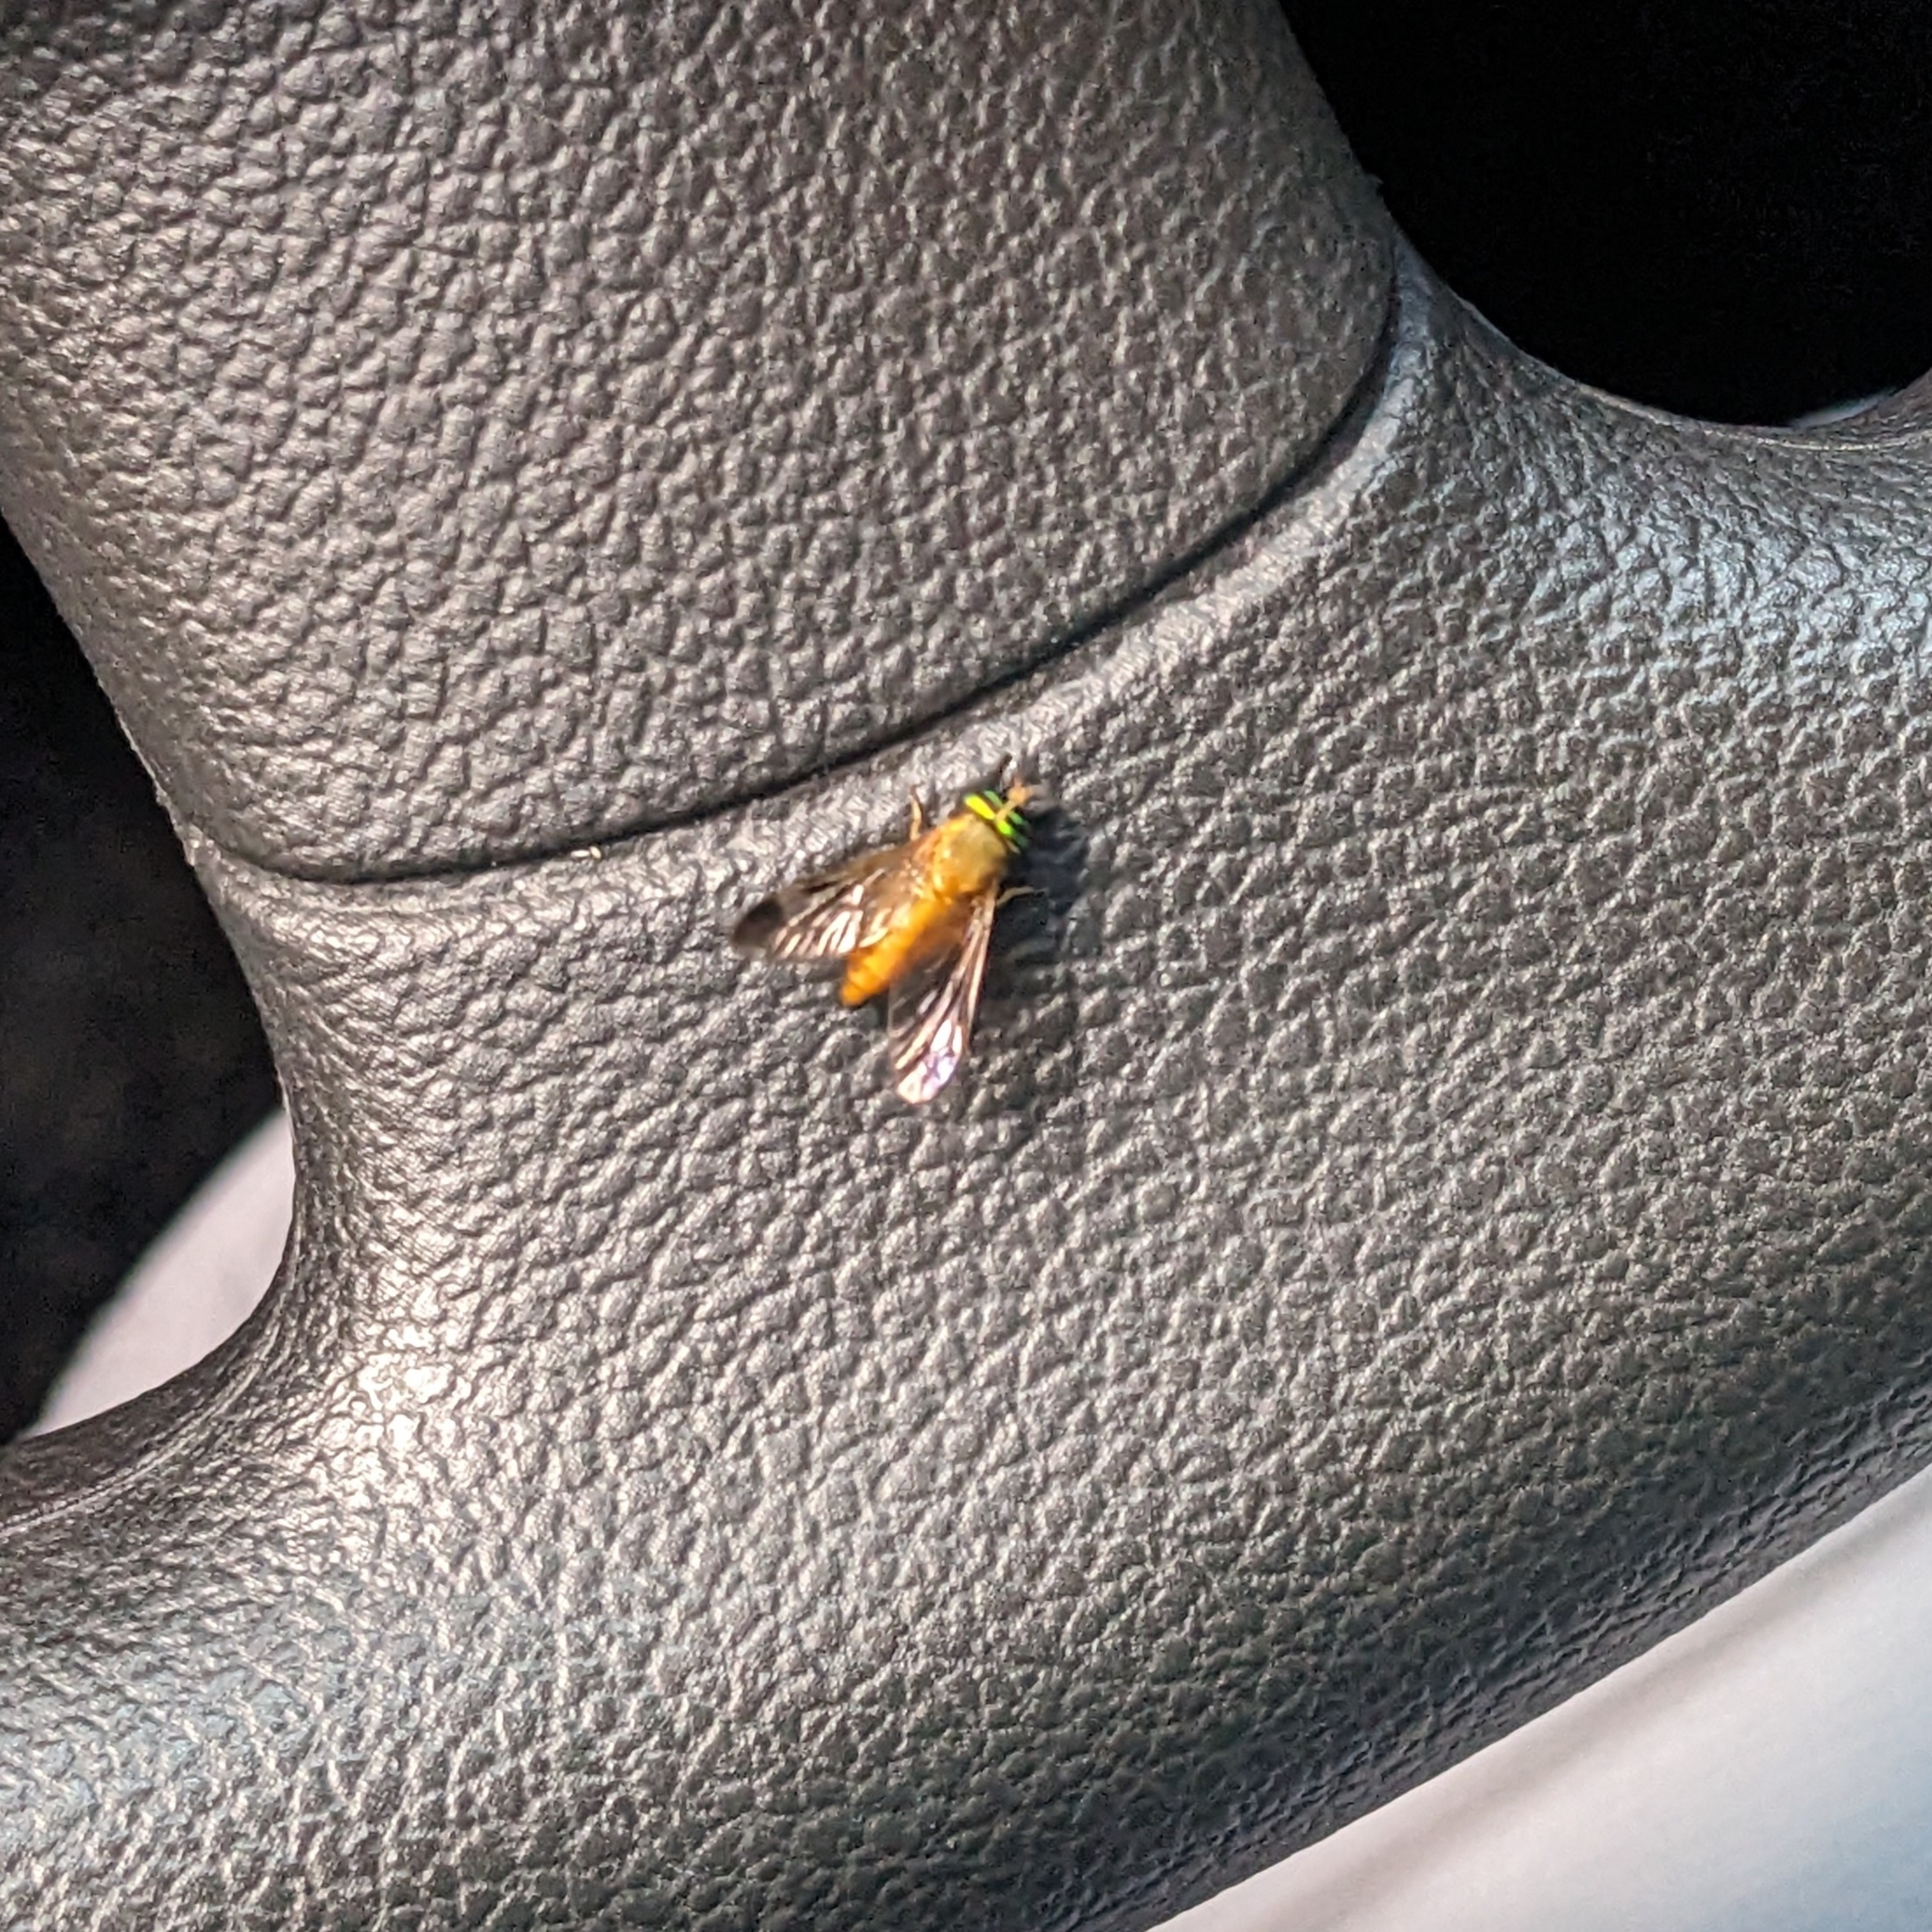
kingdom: Animalia
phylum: Arthropoda
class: Insecta
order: Diptera
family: Tabanidae
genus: Diachlorus
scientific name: Diachlorus ferrugatus
